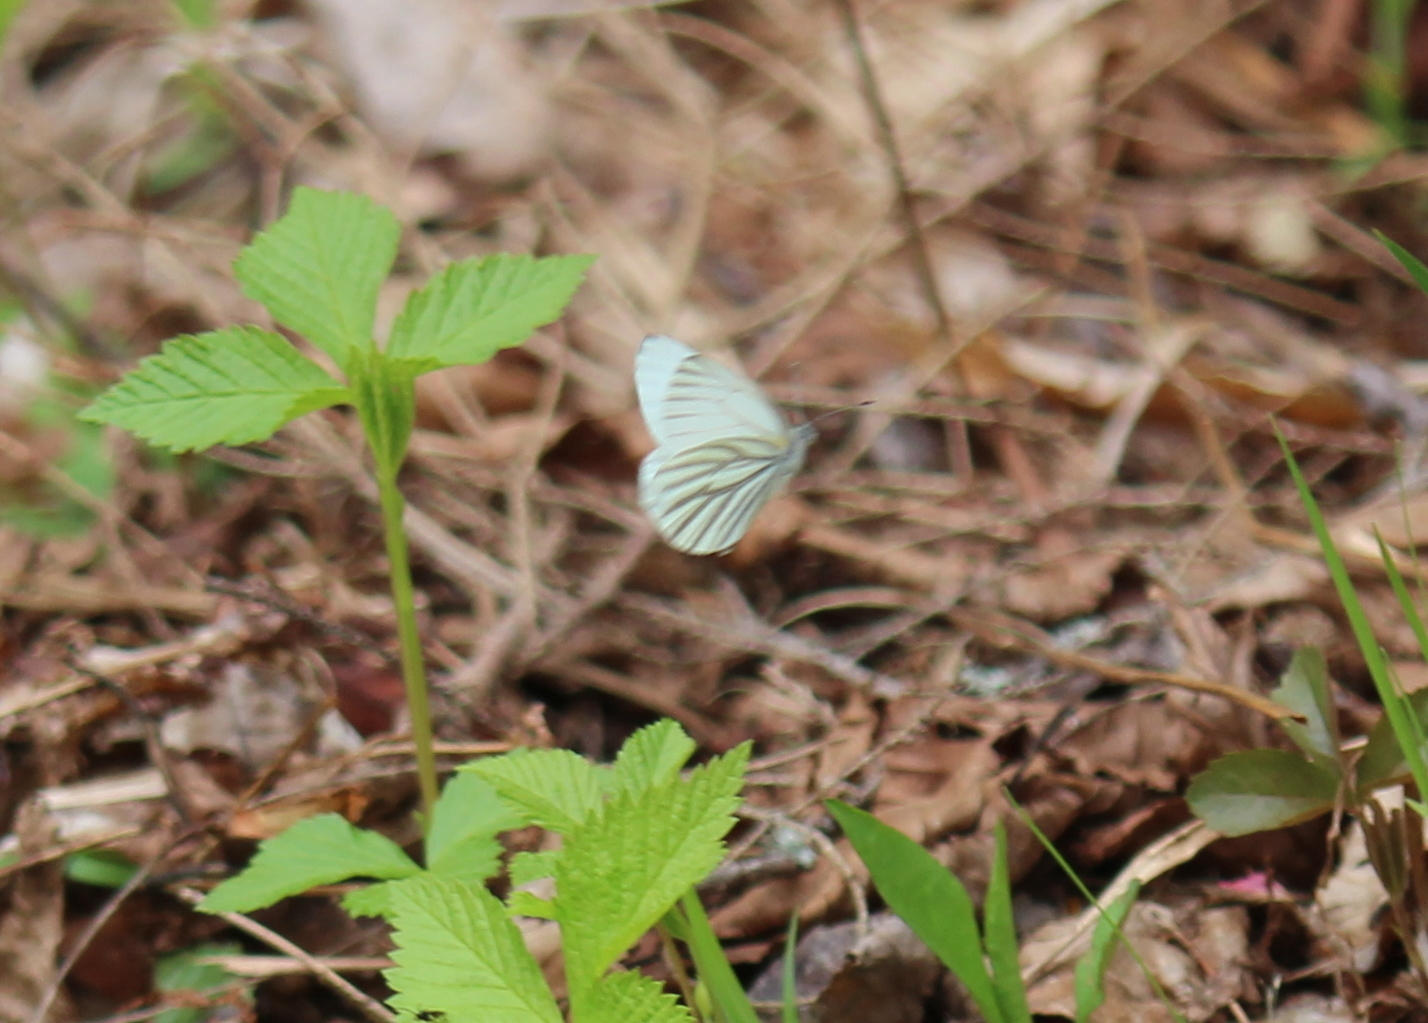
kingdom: Animalia
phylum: Arthropoda
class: Insecta
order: Lepidoptera
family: Pieridae
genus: Pieris
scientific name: Pieris oleracea
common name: Mustard white
